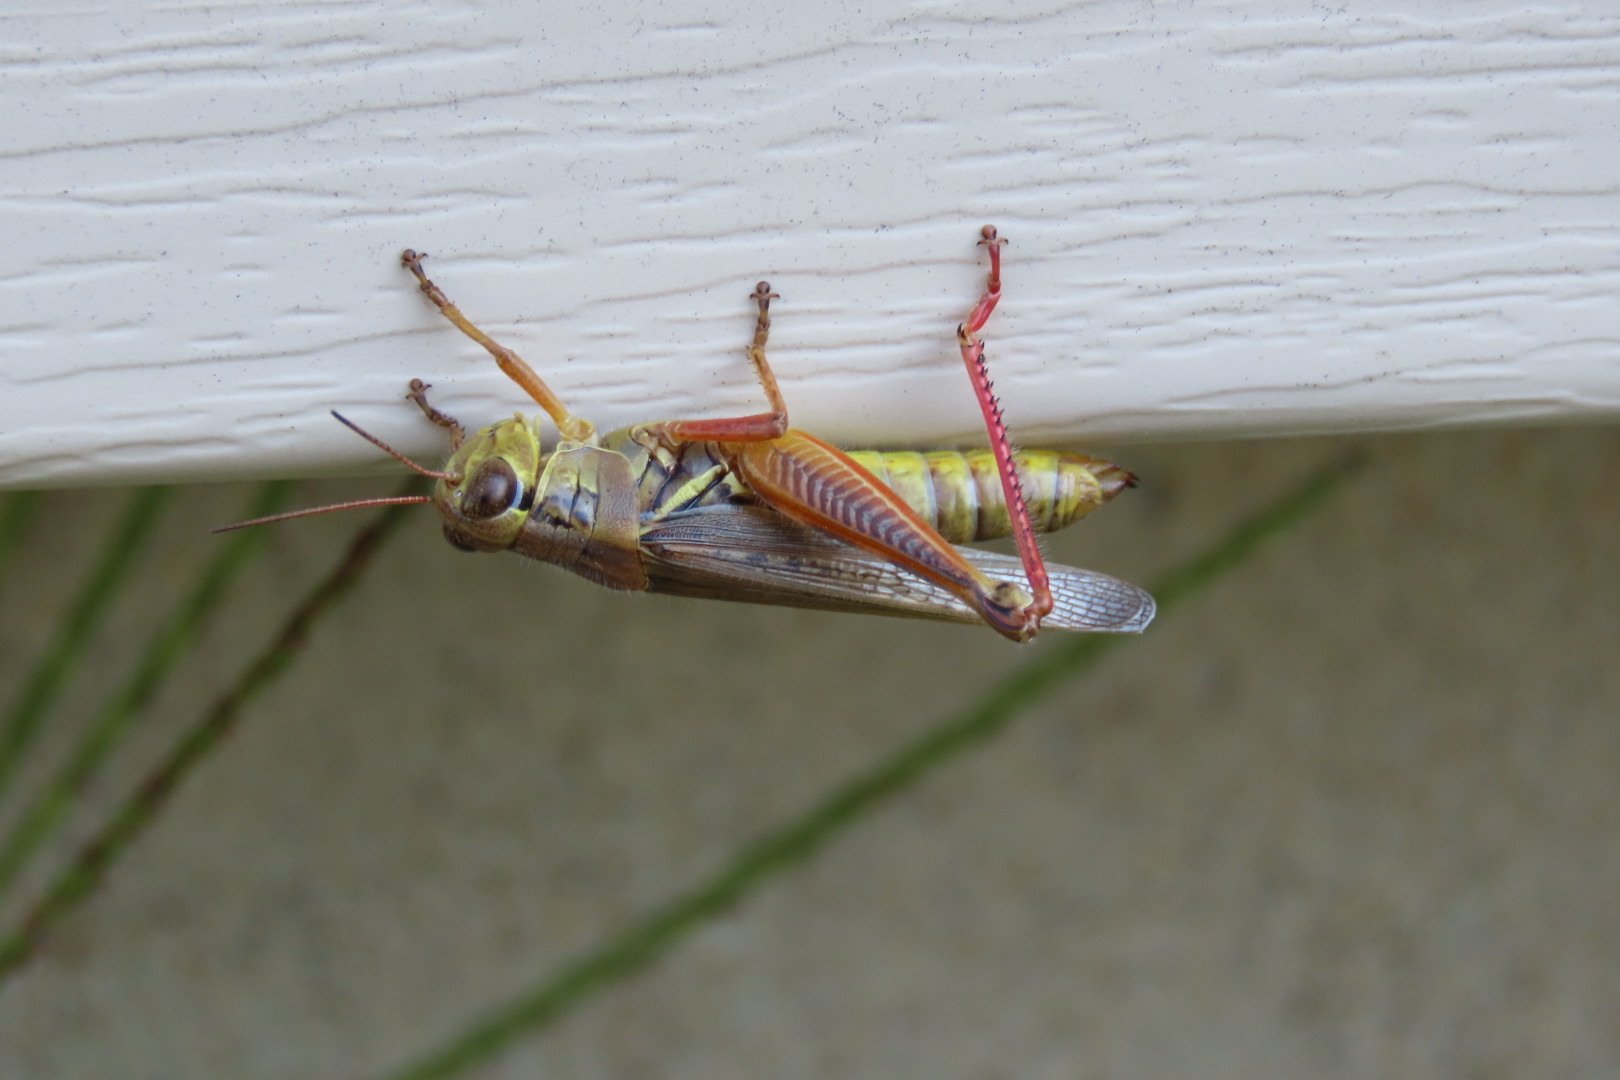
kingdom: Animalia
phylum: Arthropoda
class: Insecta
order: Orthoptera
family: Acrididae
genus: Melanoplus
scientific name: Melanoplus femurrubrum
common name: Red-legged grasshopper
